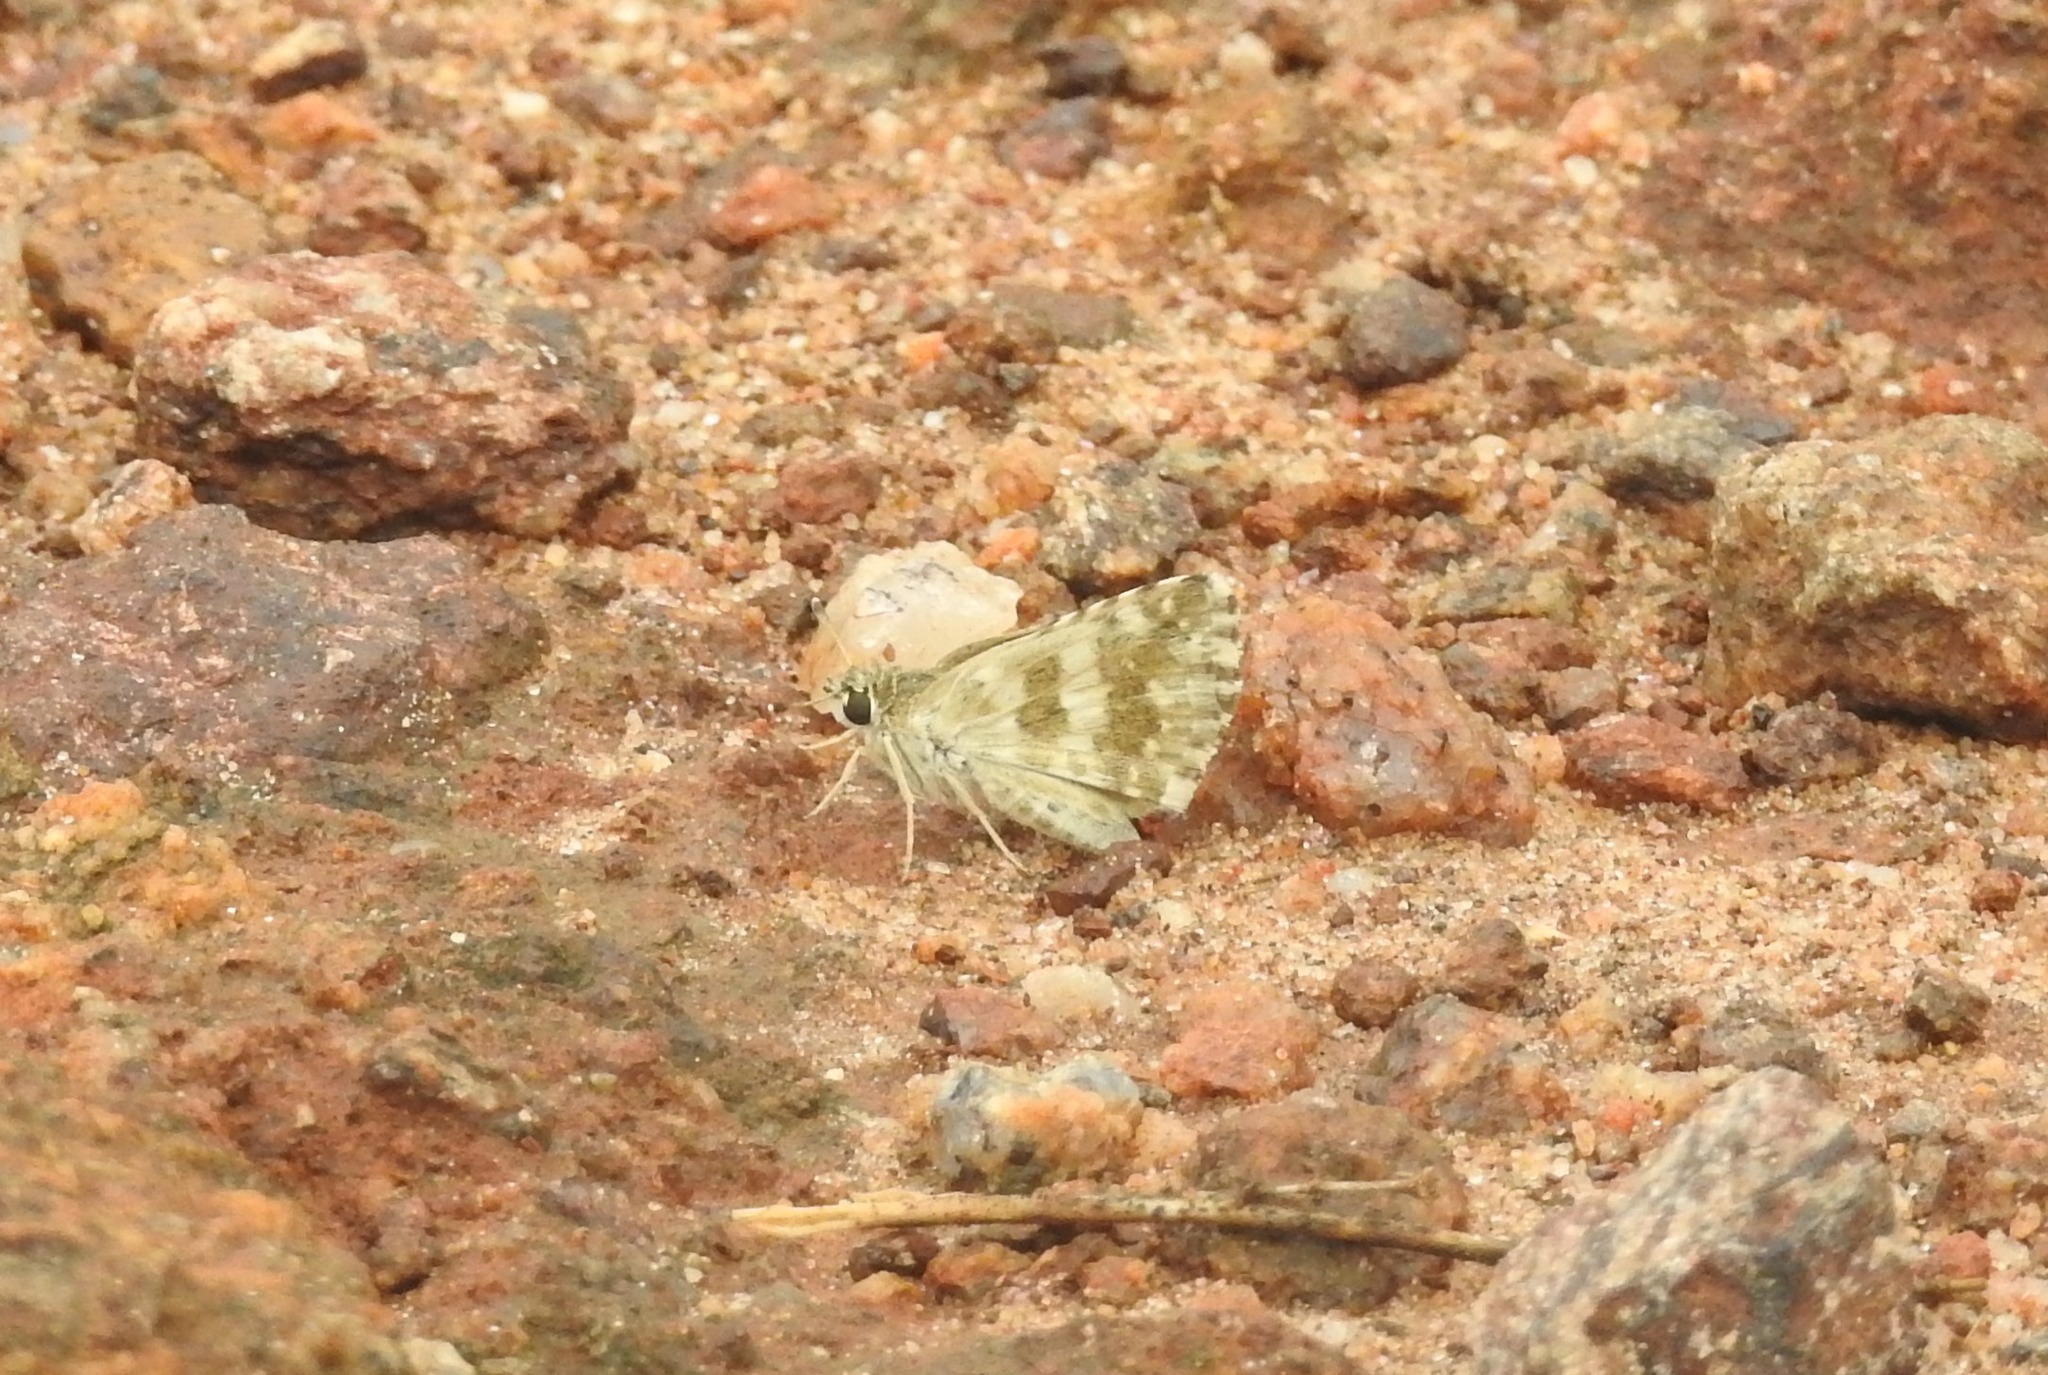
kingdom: Animalia
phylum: Arthropoda
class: Insecta
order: Lepidoptera
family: Hesperiidae
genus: Spialia
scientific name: Spialia galba
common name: Indian skipper
